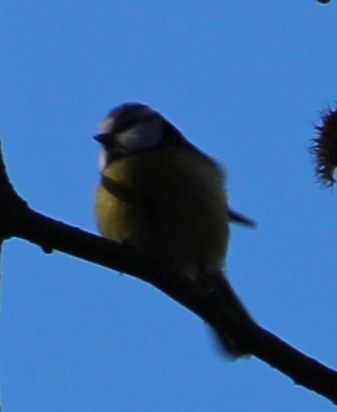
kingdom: Animalia
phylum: Chordata
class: Aves
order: Passeriformes
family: Paridae
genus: Cyanistes
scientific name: Cyanistes caeruleus
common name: Eurasian blue tit
